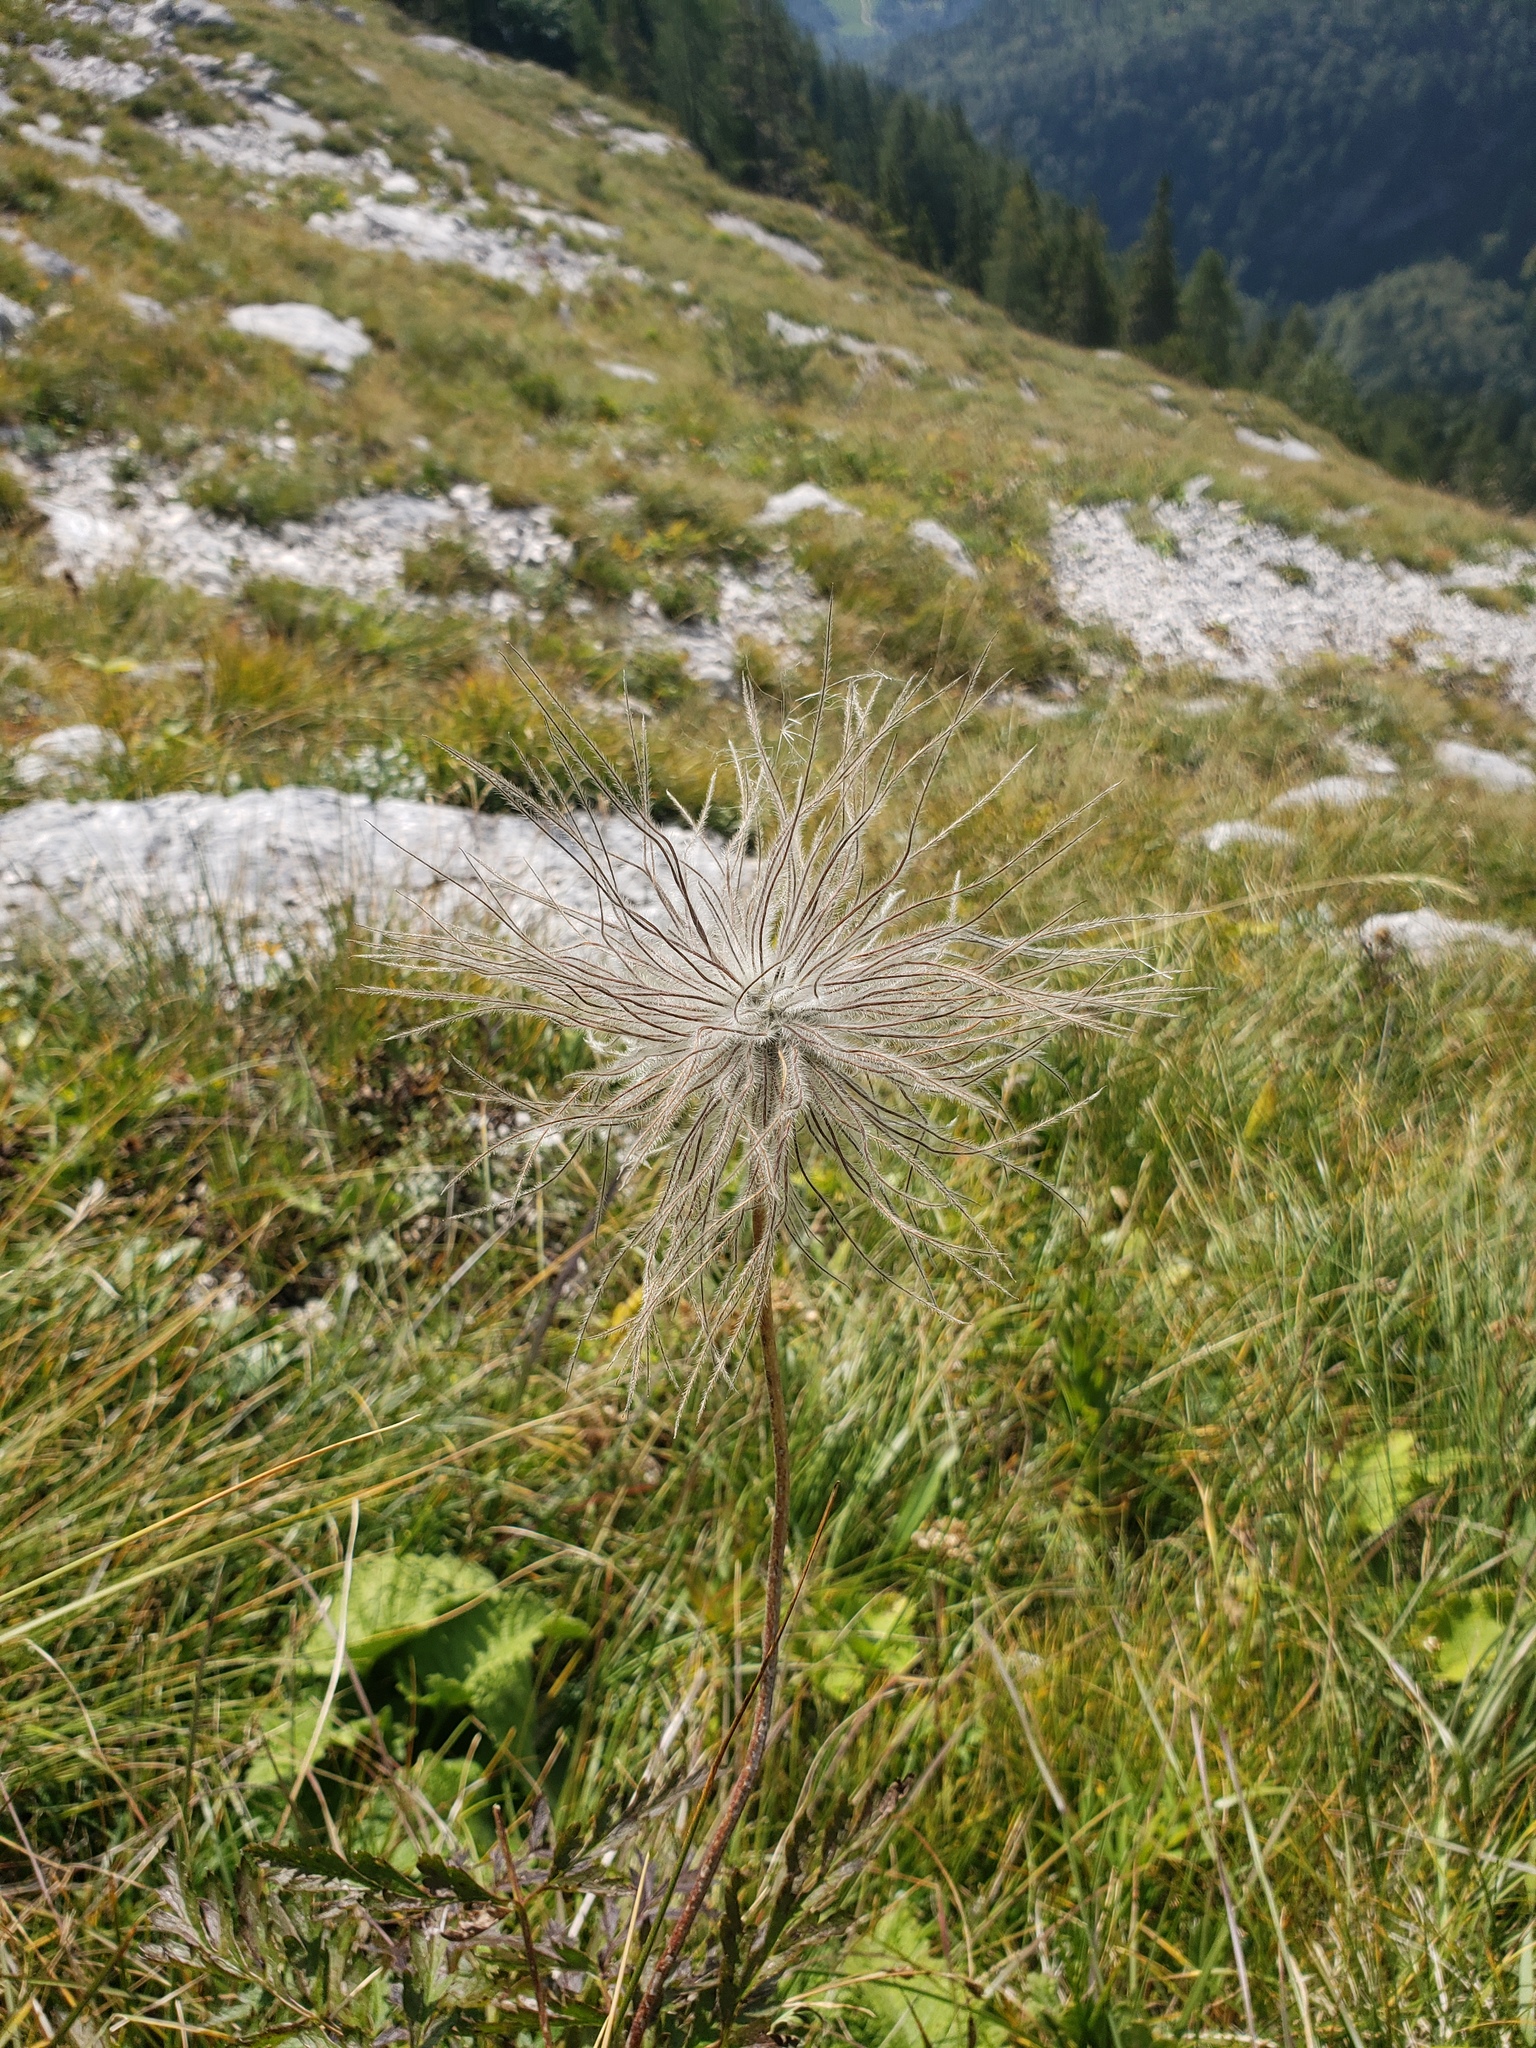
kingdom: Plantae
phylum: Tracheophyta
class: Magnoliopsida
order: Rosales
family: Rosaceae
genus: Dryas
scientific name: Dryas octopetala
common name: Eight-petal mountain-avens
